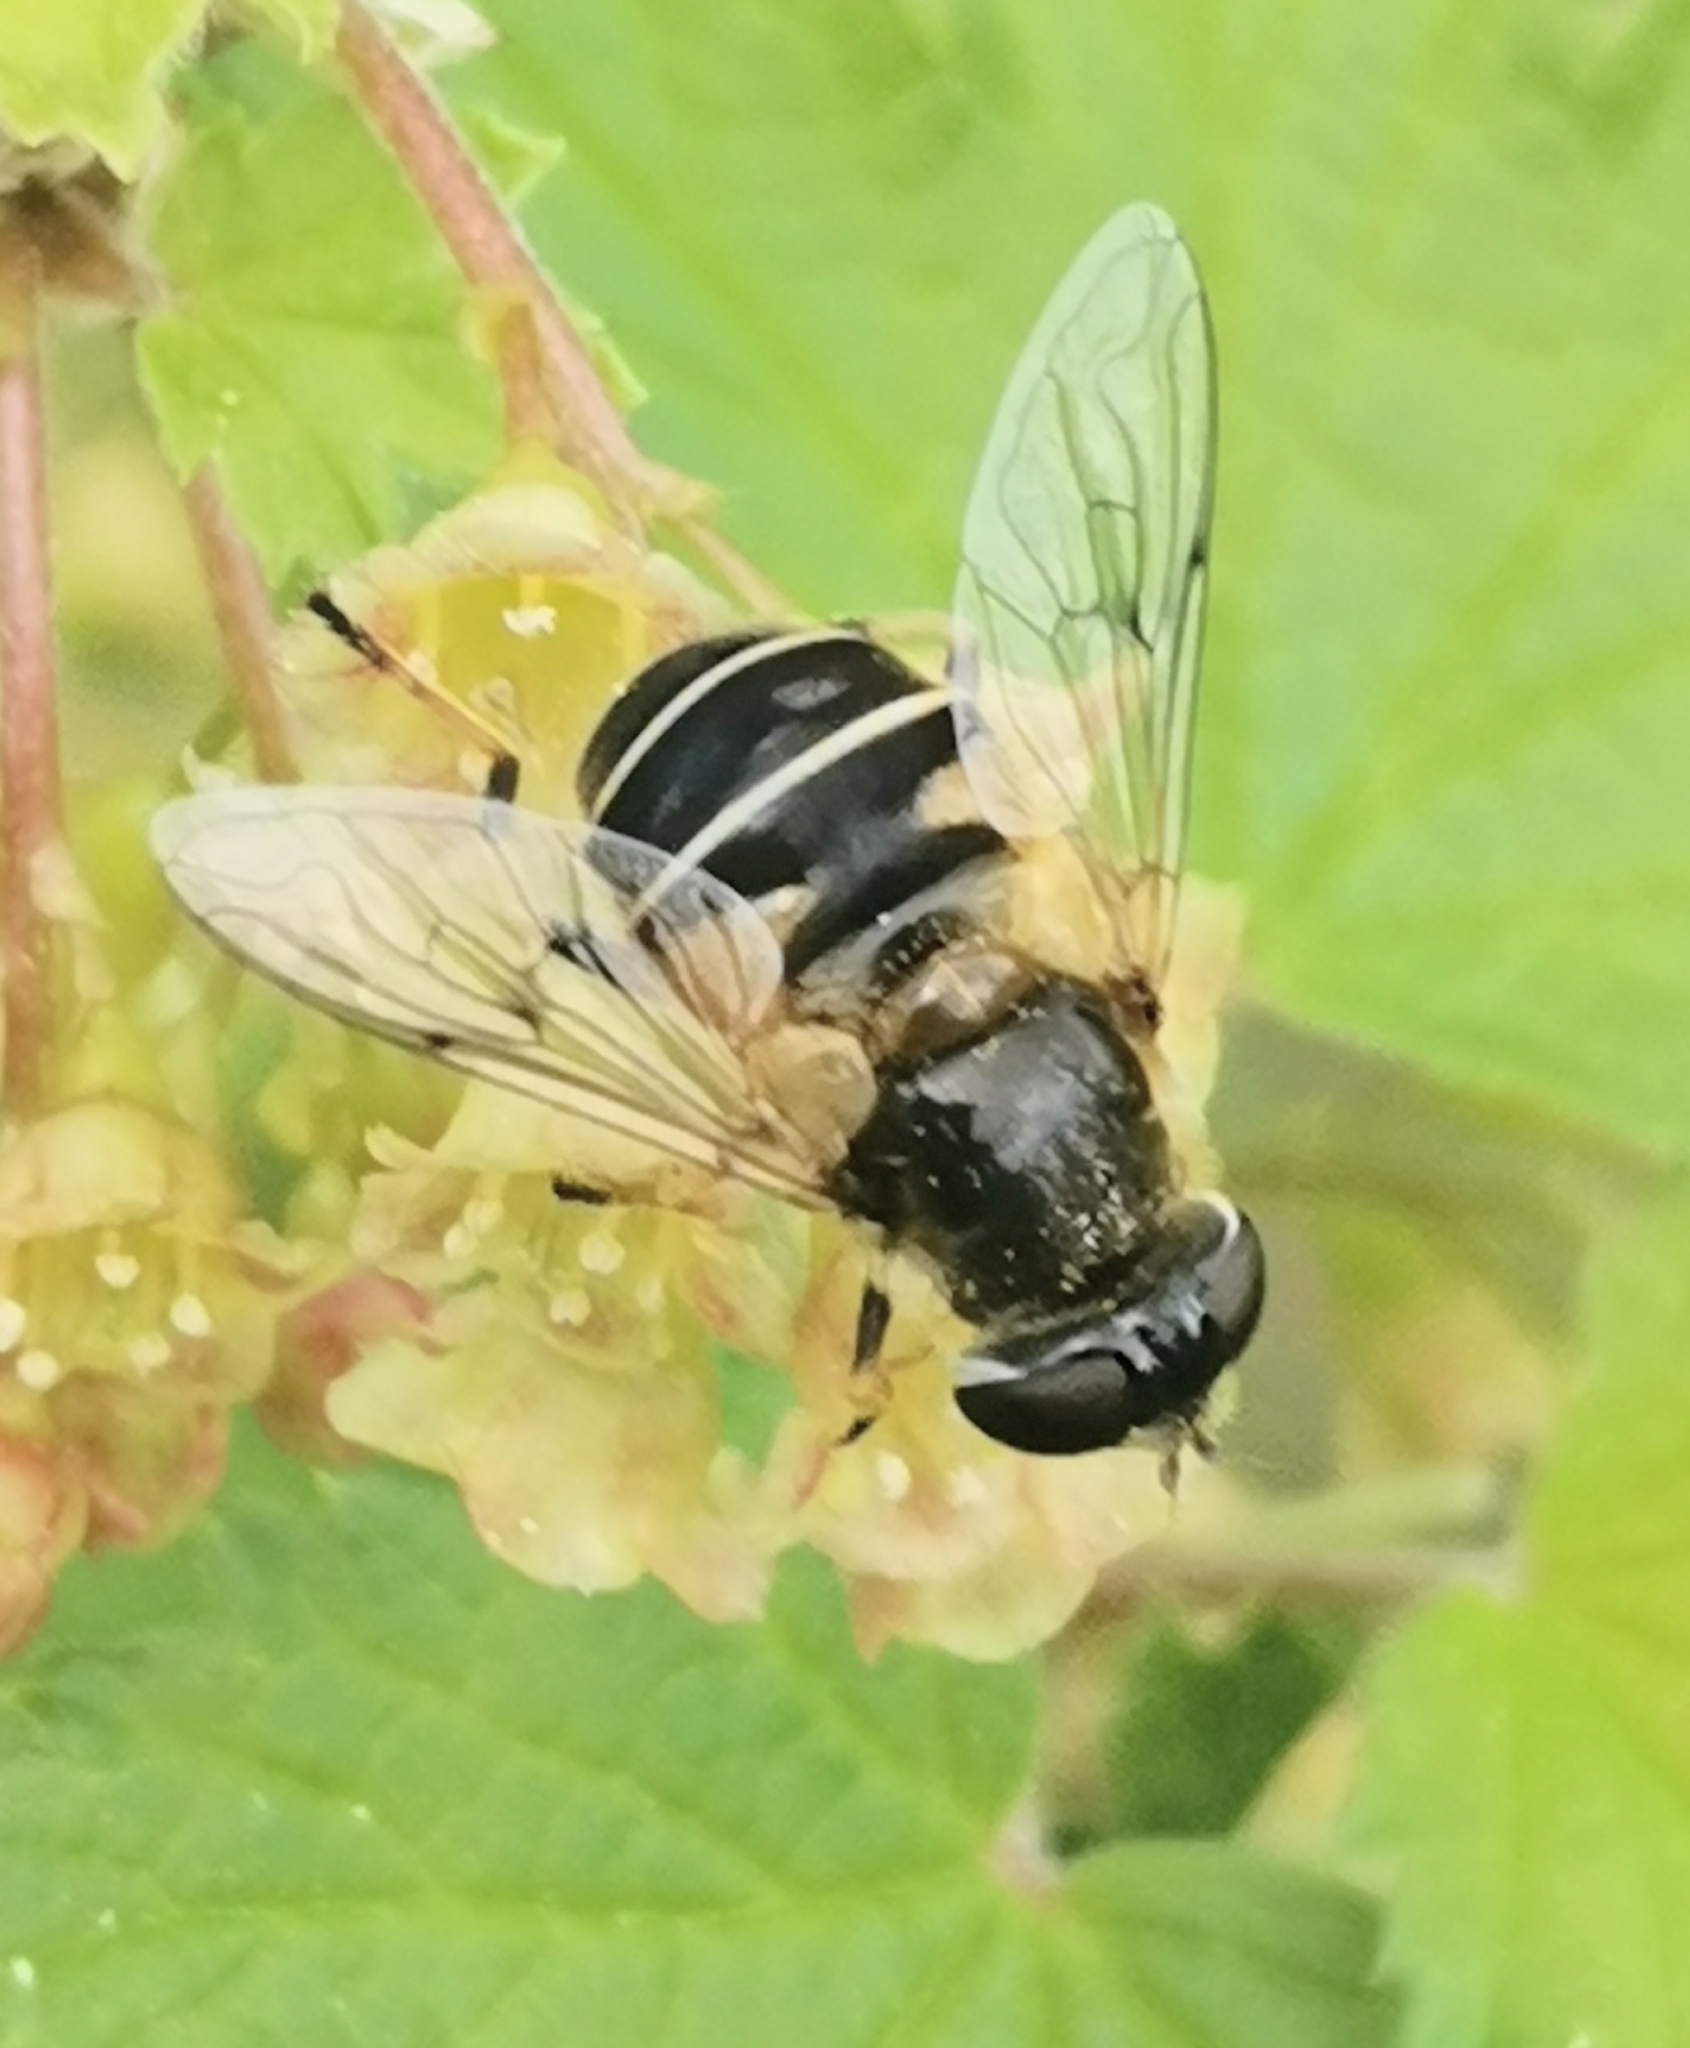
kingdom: Animalia
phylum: Arthropoda
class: Insecta
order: Diptera
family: Syrphidae
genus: Eristalis
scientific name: Eristalis obscura
